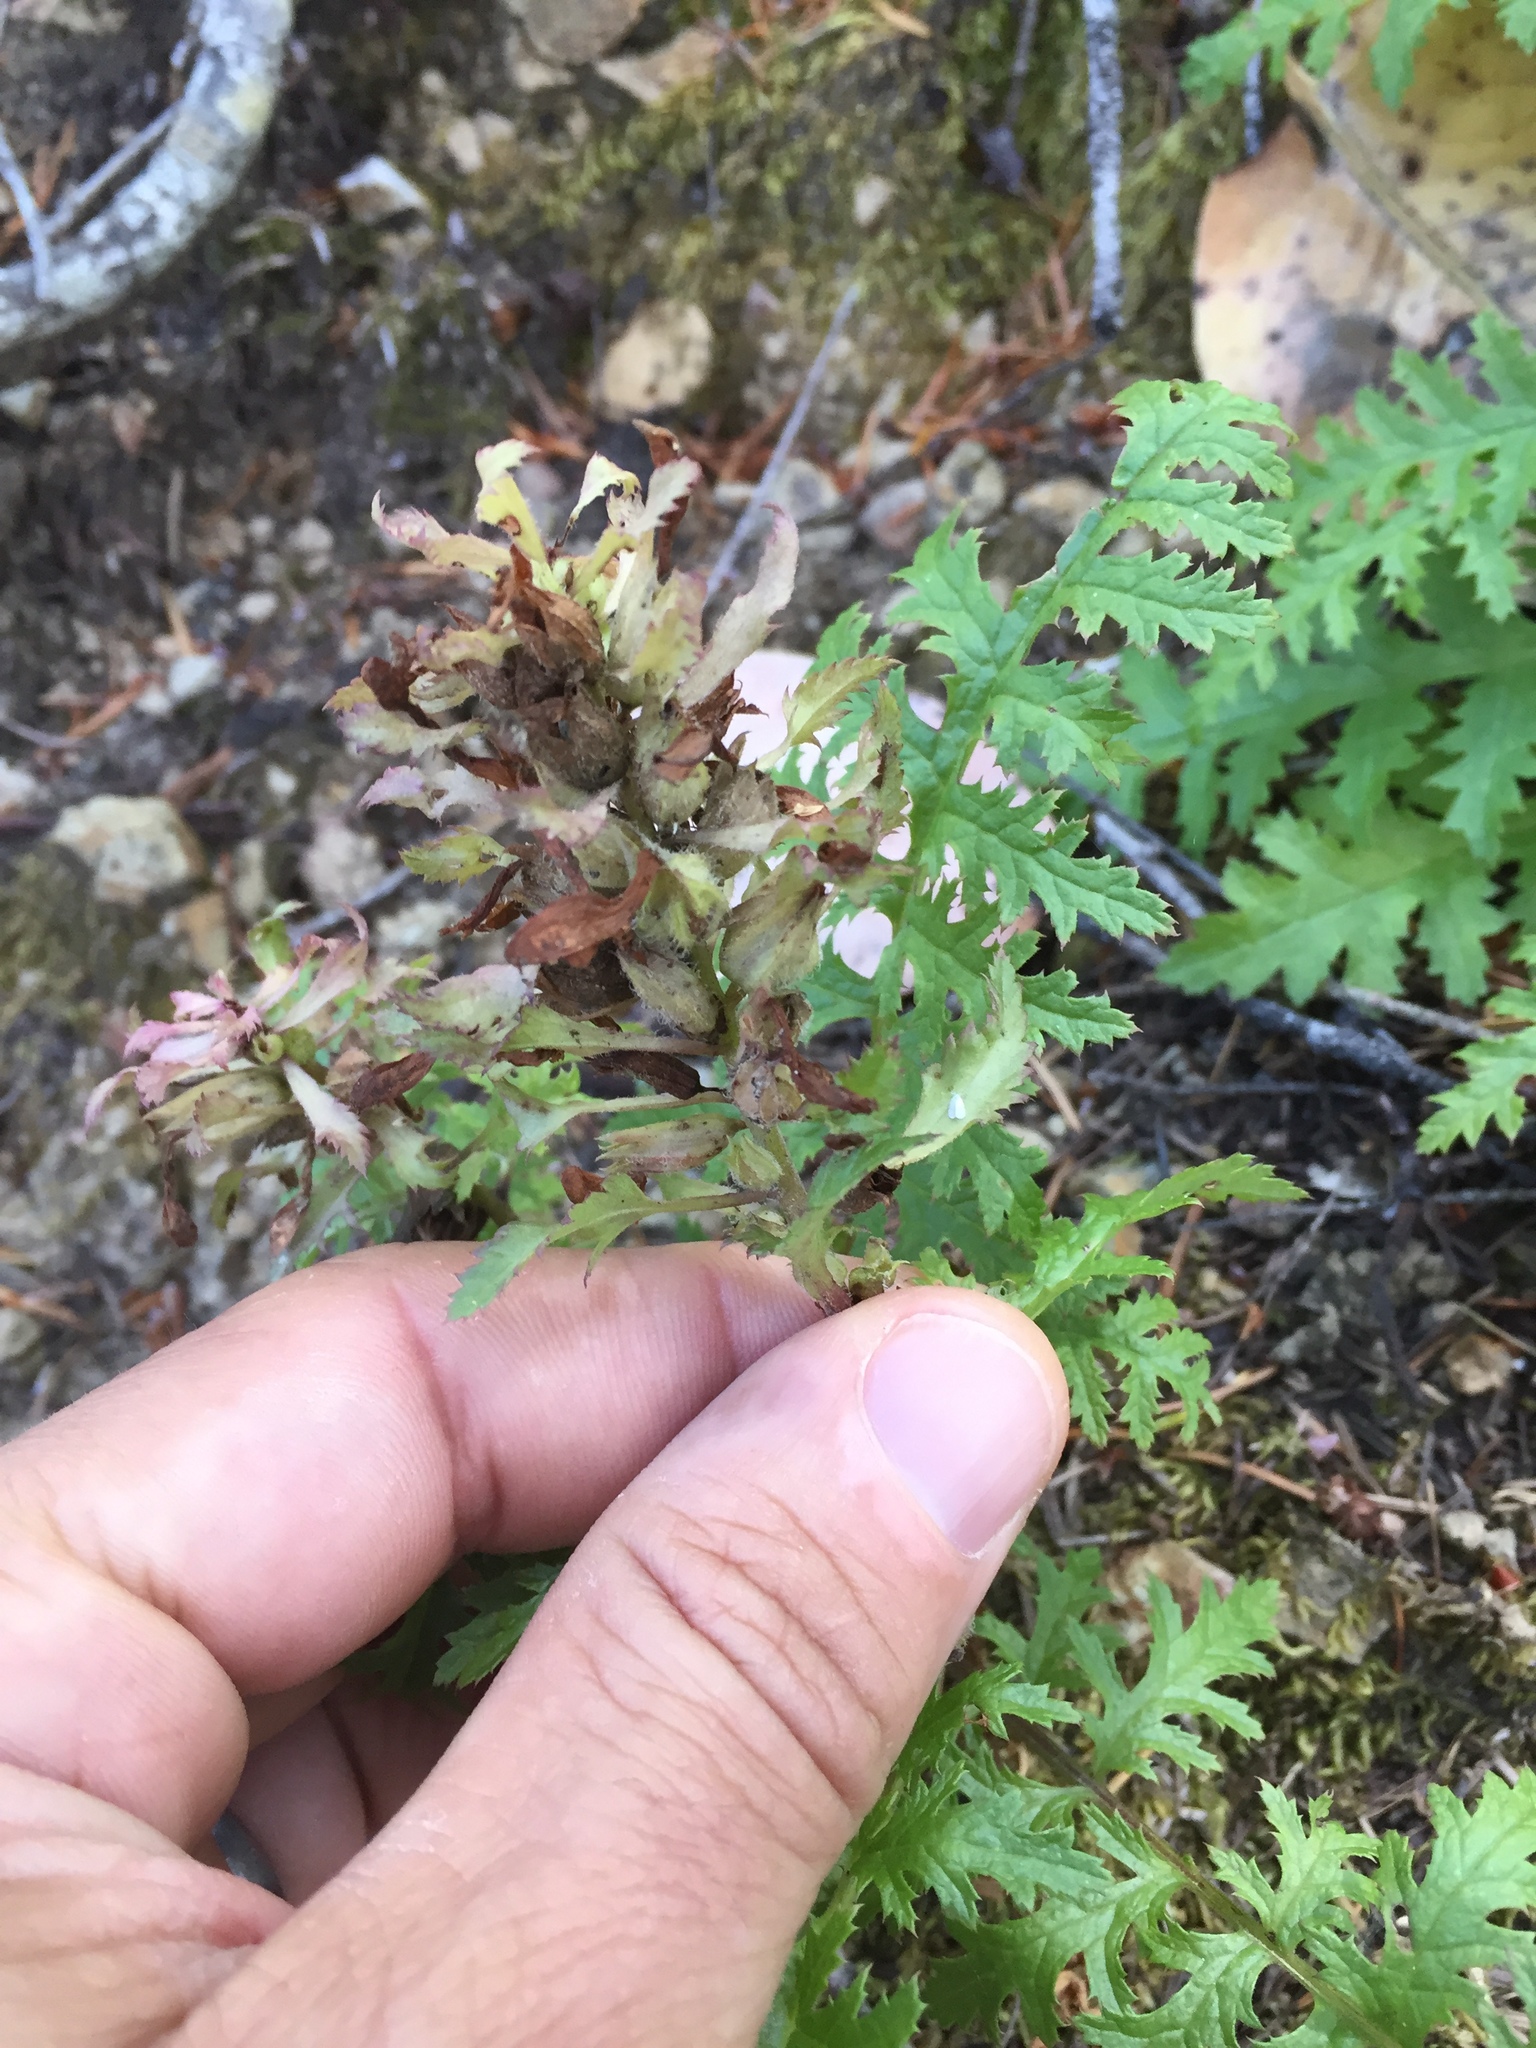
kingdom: Plantae
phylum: Tracheophyta
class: Magnoliopsida
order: Lamiales
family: Orobanchaceae
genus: Pedicularis
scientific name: Pedicularis densiflora
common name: Indian warrior
